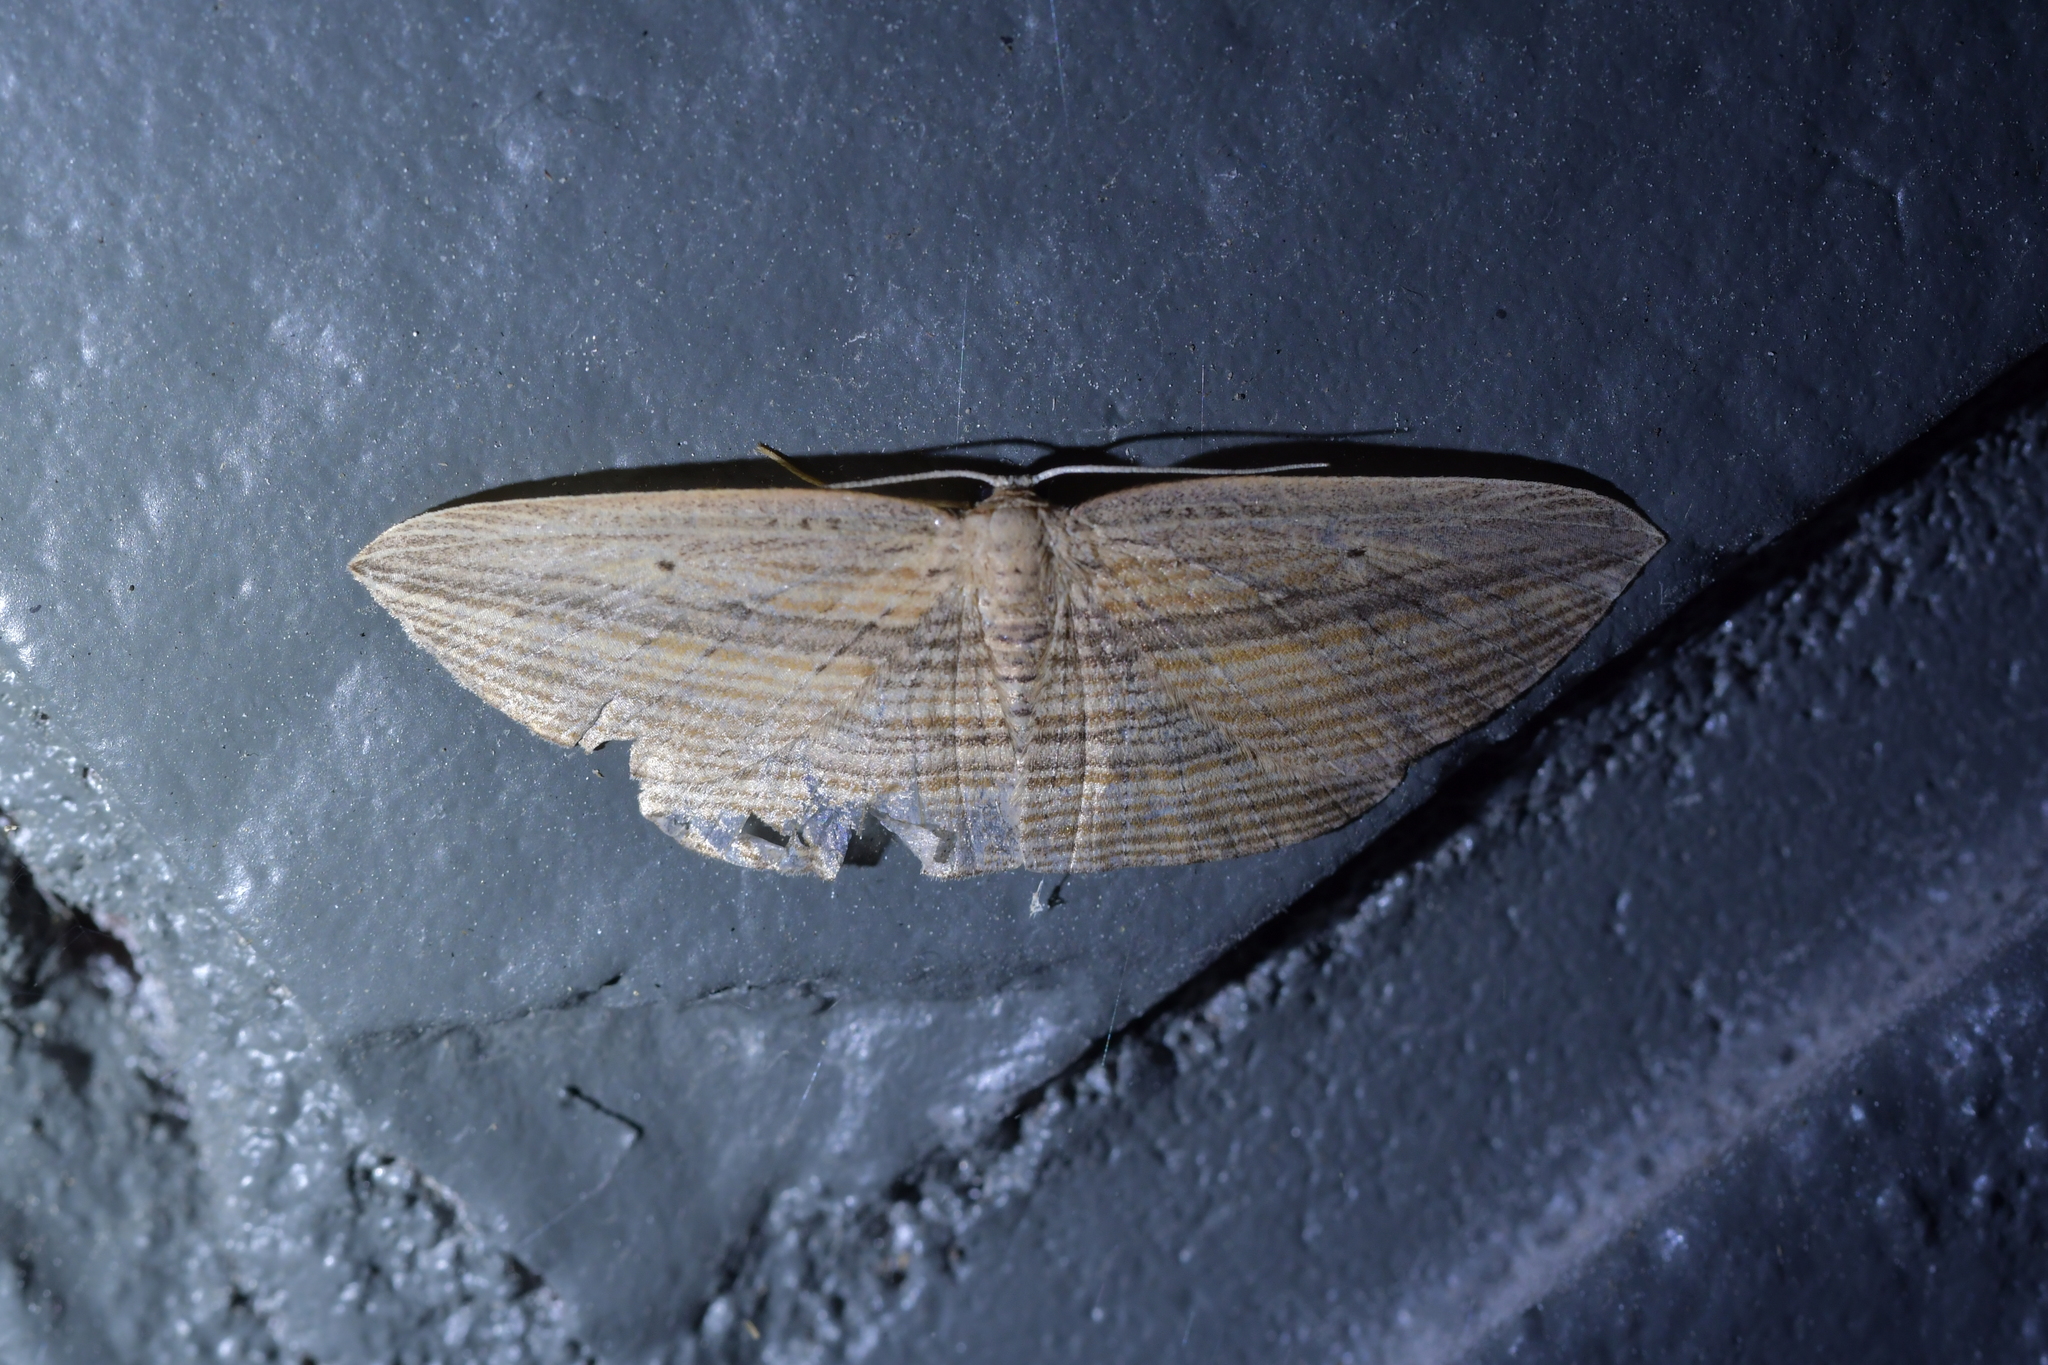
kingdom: Animalia
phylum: Arthropoda
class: Insecta
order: Lepidoptera
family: Geometridae
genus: Epiphryne
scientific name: Epiphryne verriculata
